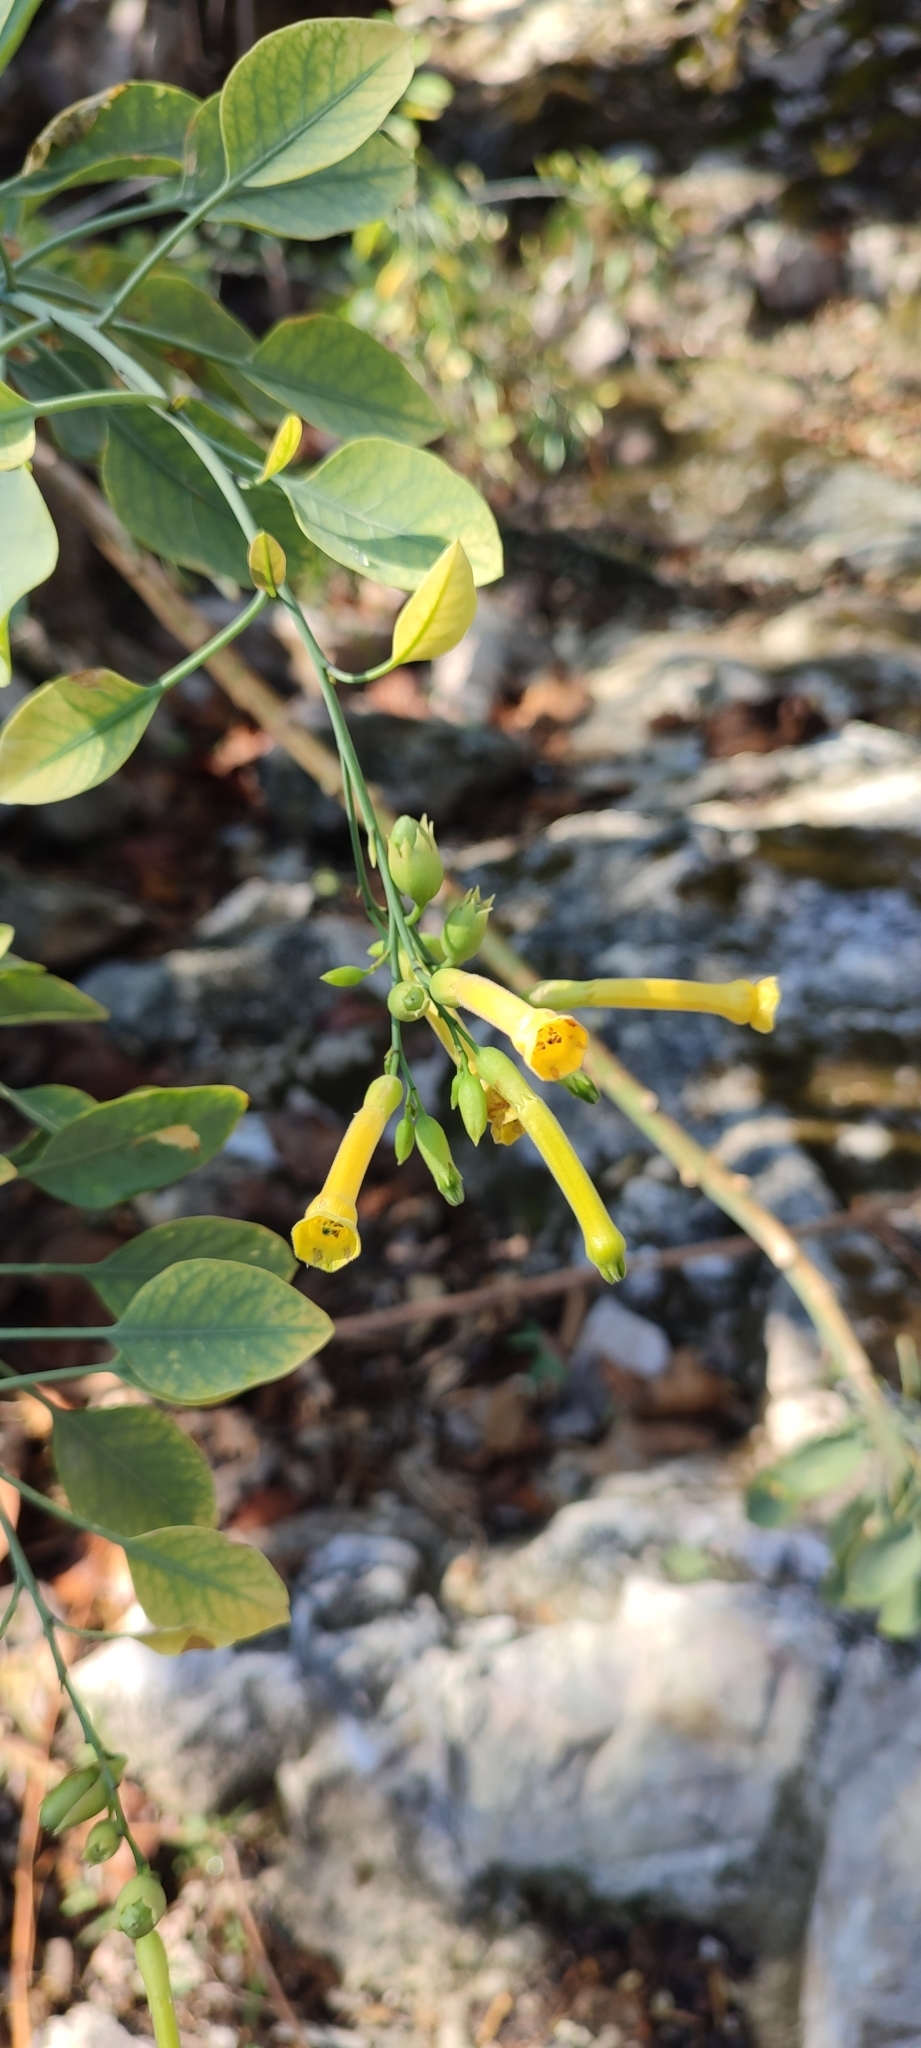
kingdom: Plantae
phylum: Tracheophyta
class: Magnoliopsida
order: Solanales
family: Solanaceae
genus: Nicotiana
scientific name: Nicotiana glauca
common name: Tree tobacco
